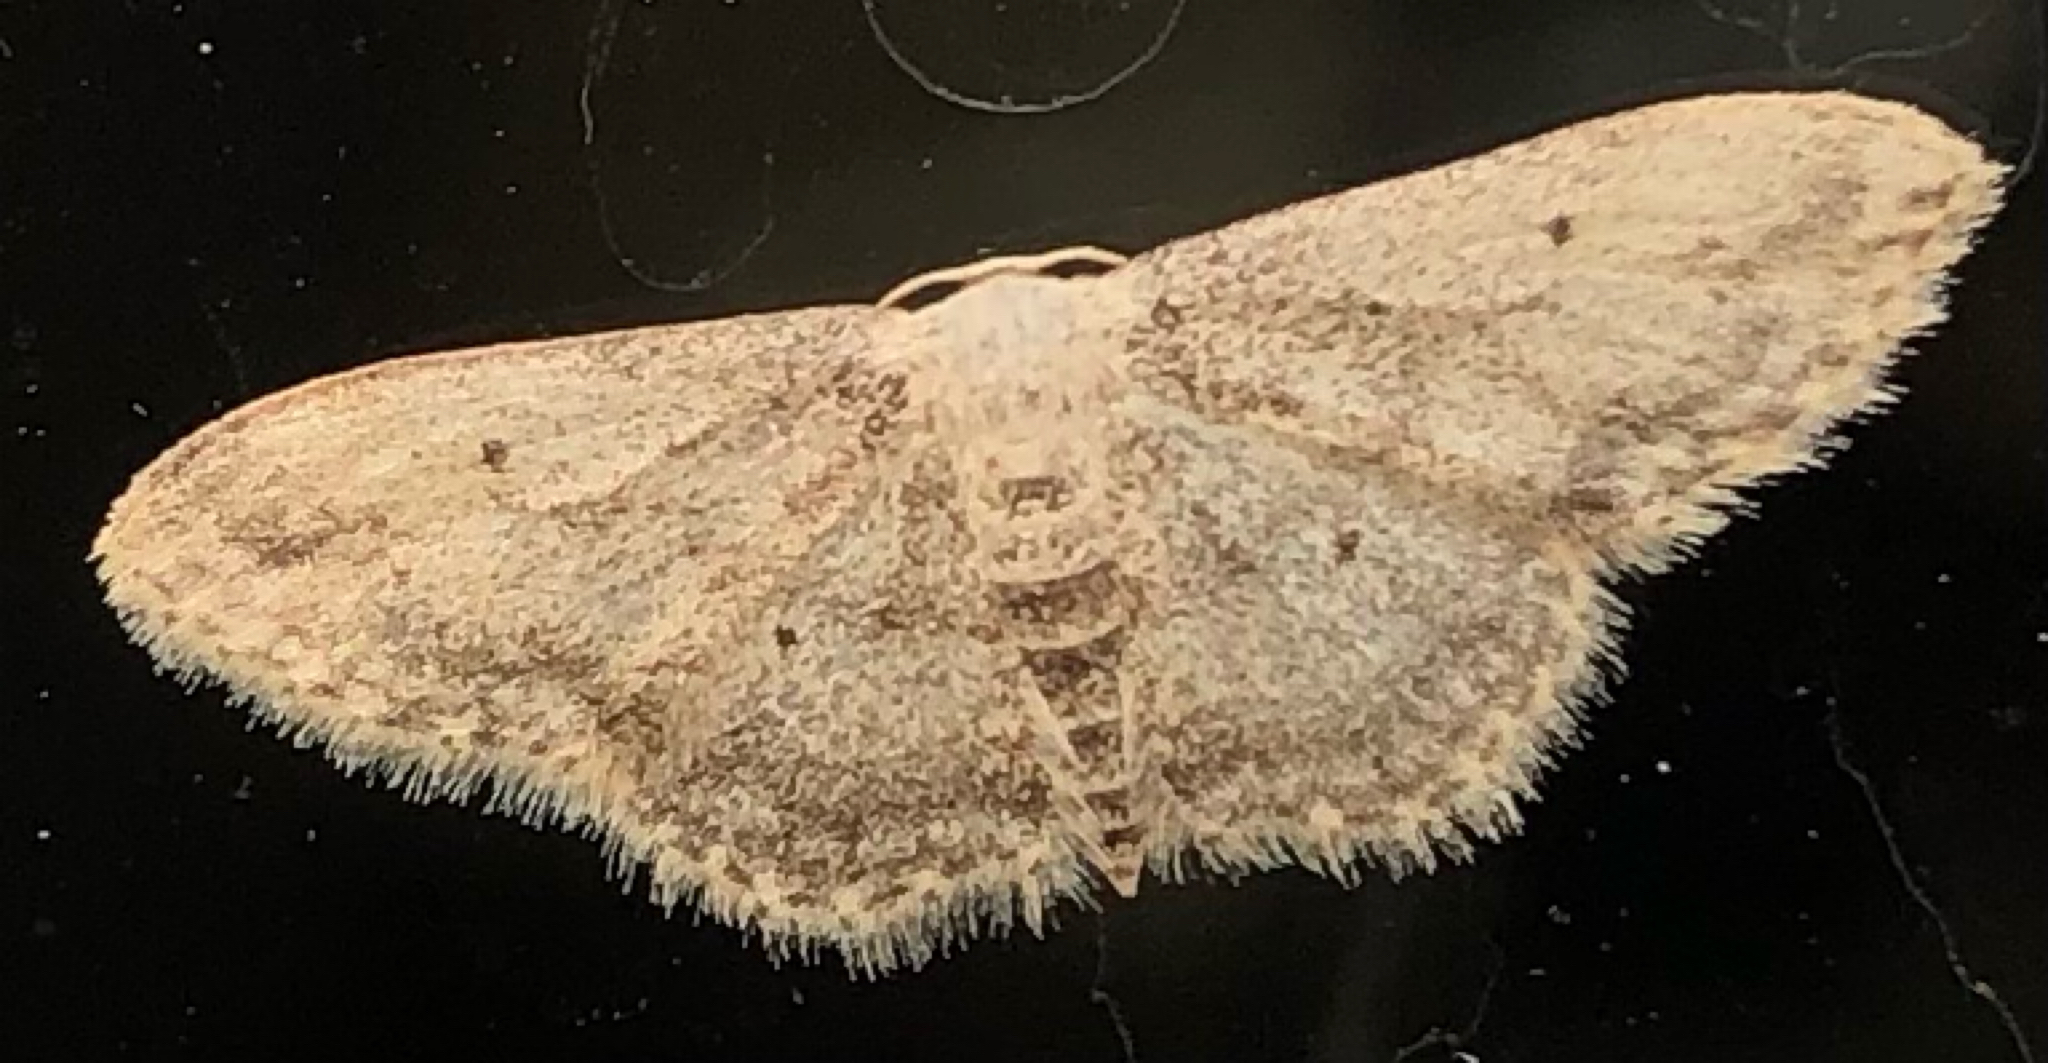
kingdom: Animalia
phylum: Arthropoda
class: Insecta
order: Lepidoptera
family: Geometridae
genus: Idaea
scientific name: Idaea seriata
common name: Small dusty wave
